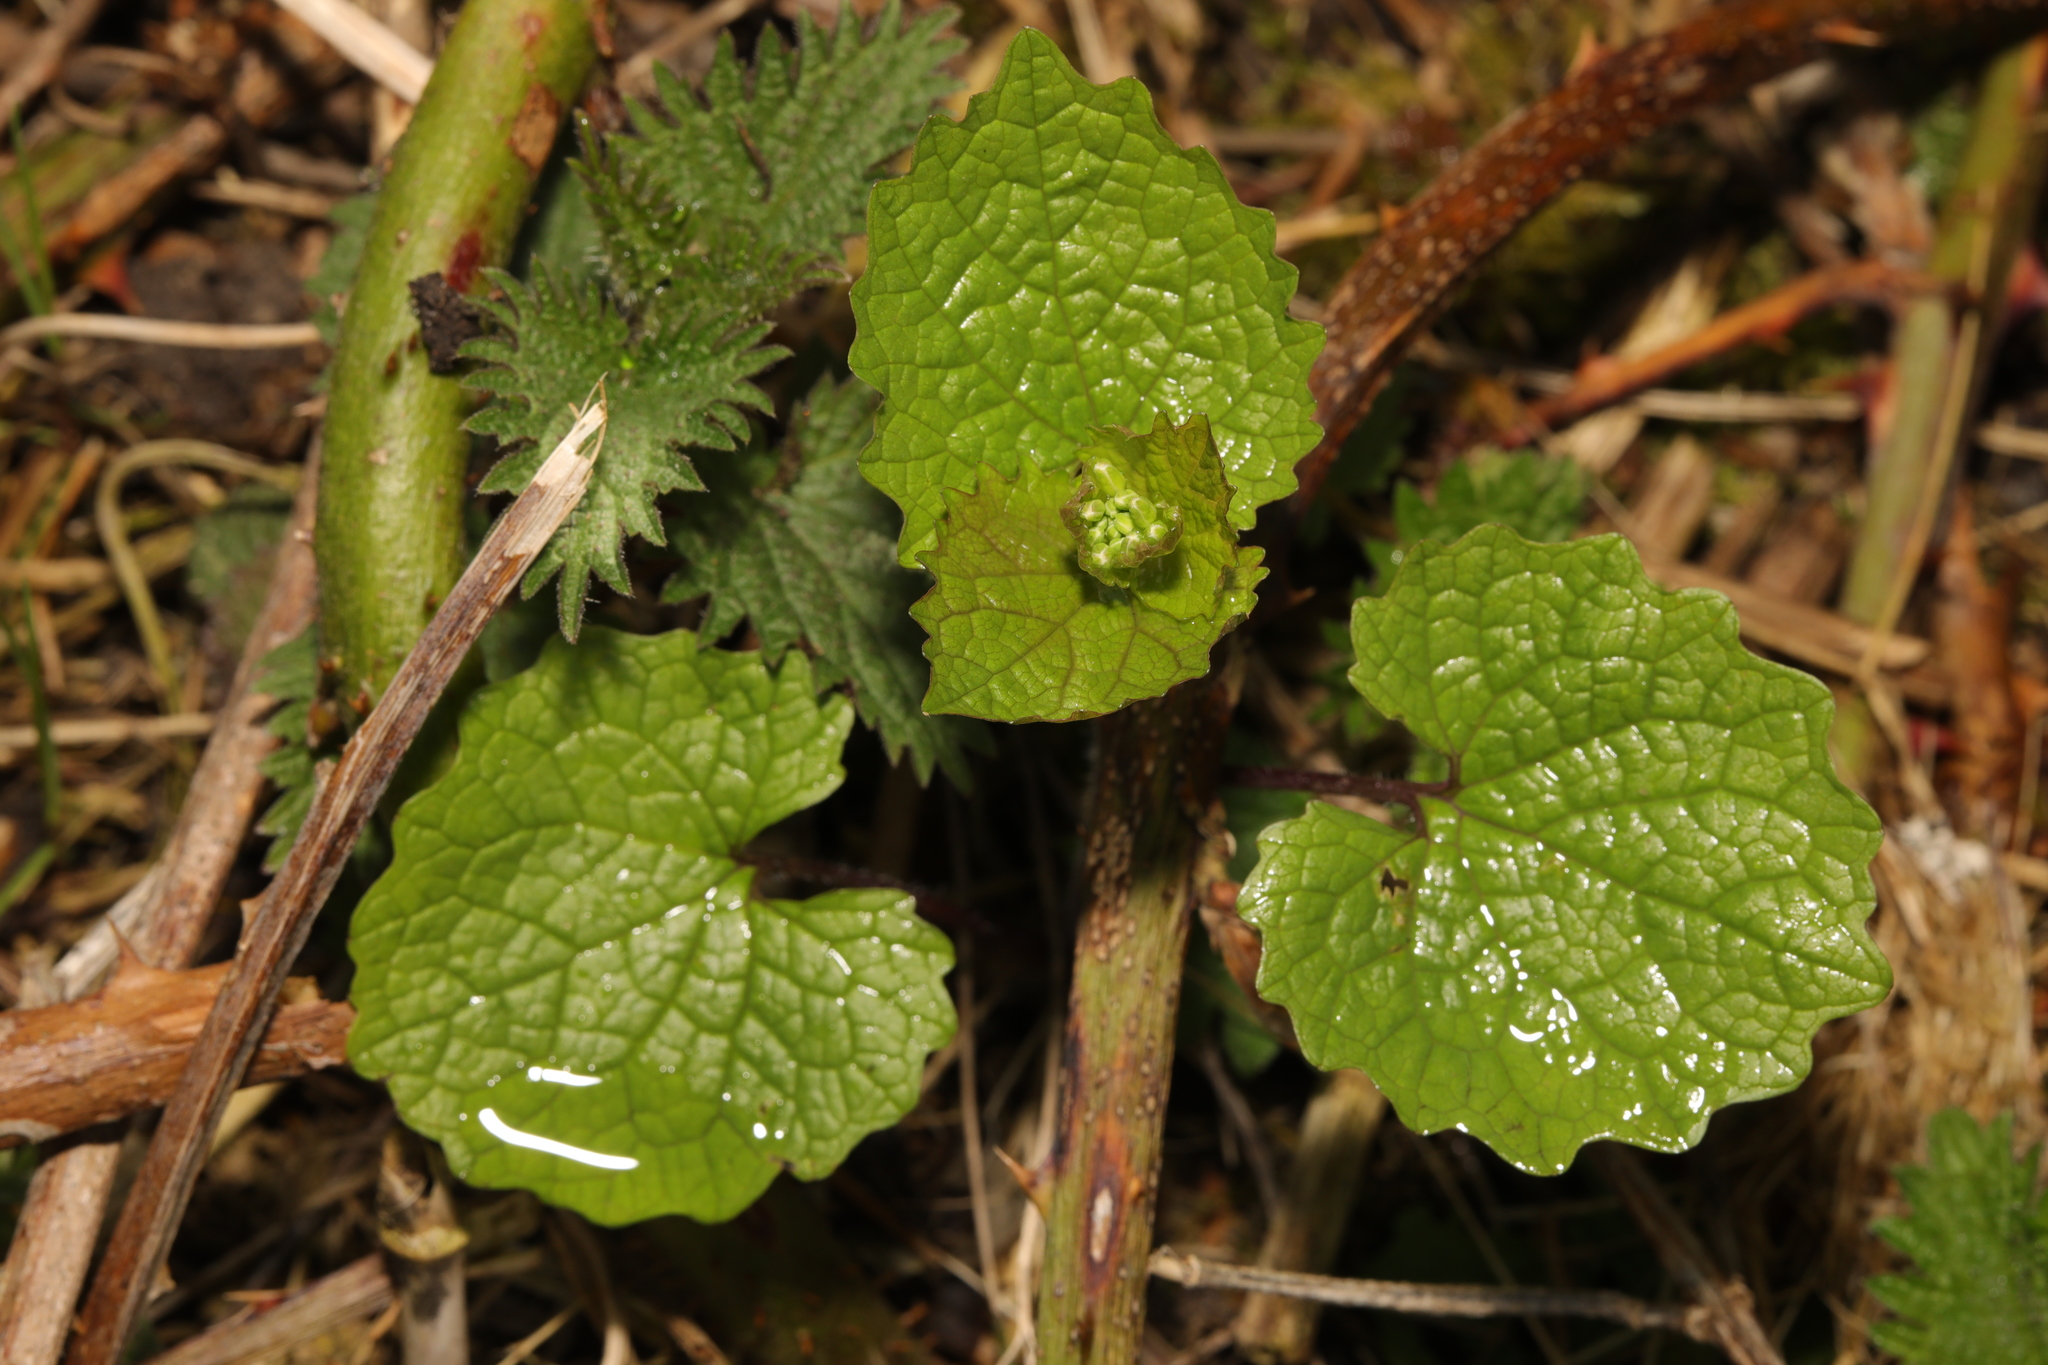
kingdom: Plantae
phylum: Tracheophyta
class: Magnoliopsida
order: Brassicales
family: Brassicaceae
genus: Alliaria
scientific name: Alliaria petiolata
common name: Garlic mustard
